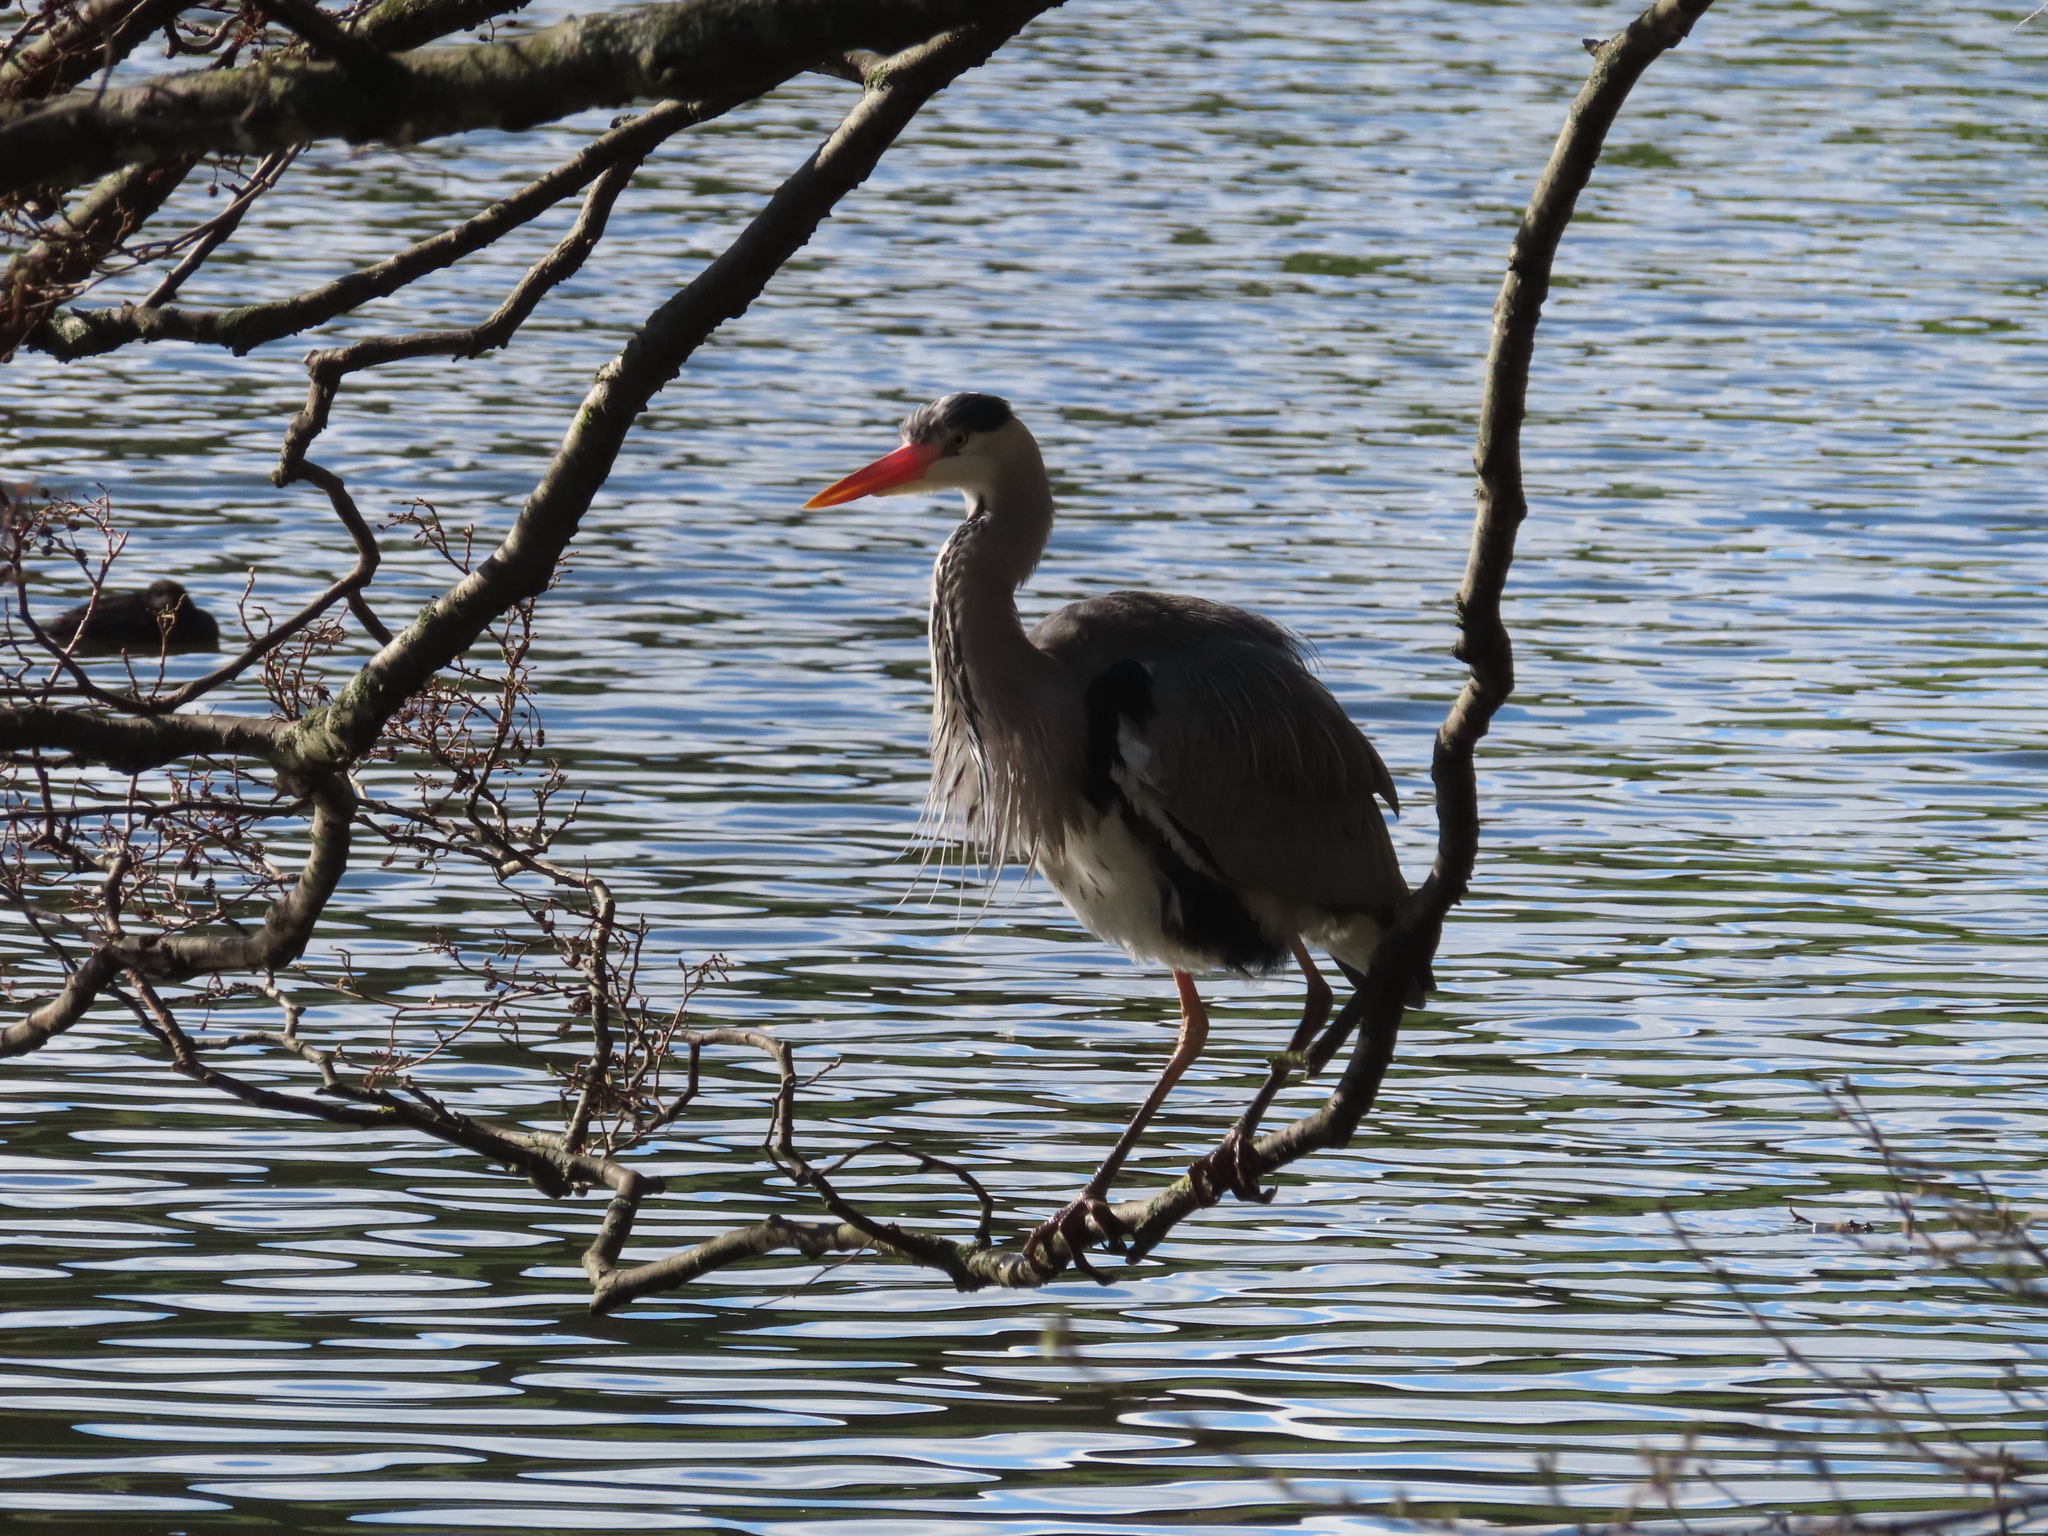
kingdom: Animalia
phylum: Chordata
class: Aves
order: Pelecaniformes
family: Ardeidae
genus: Ardea
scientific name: Ardea cinerea
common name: Grey heron
